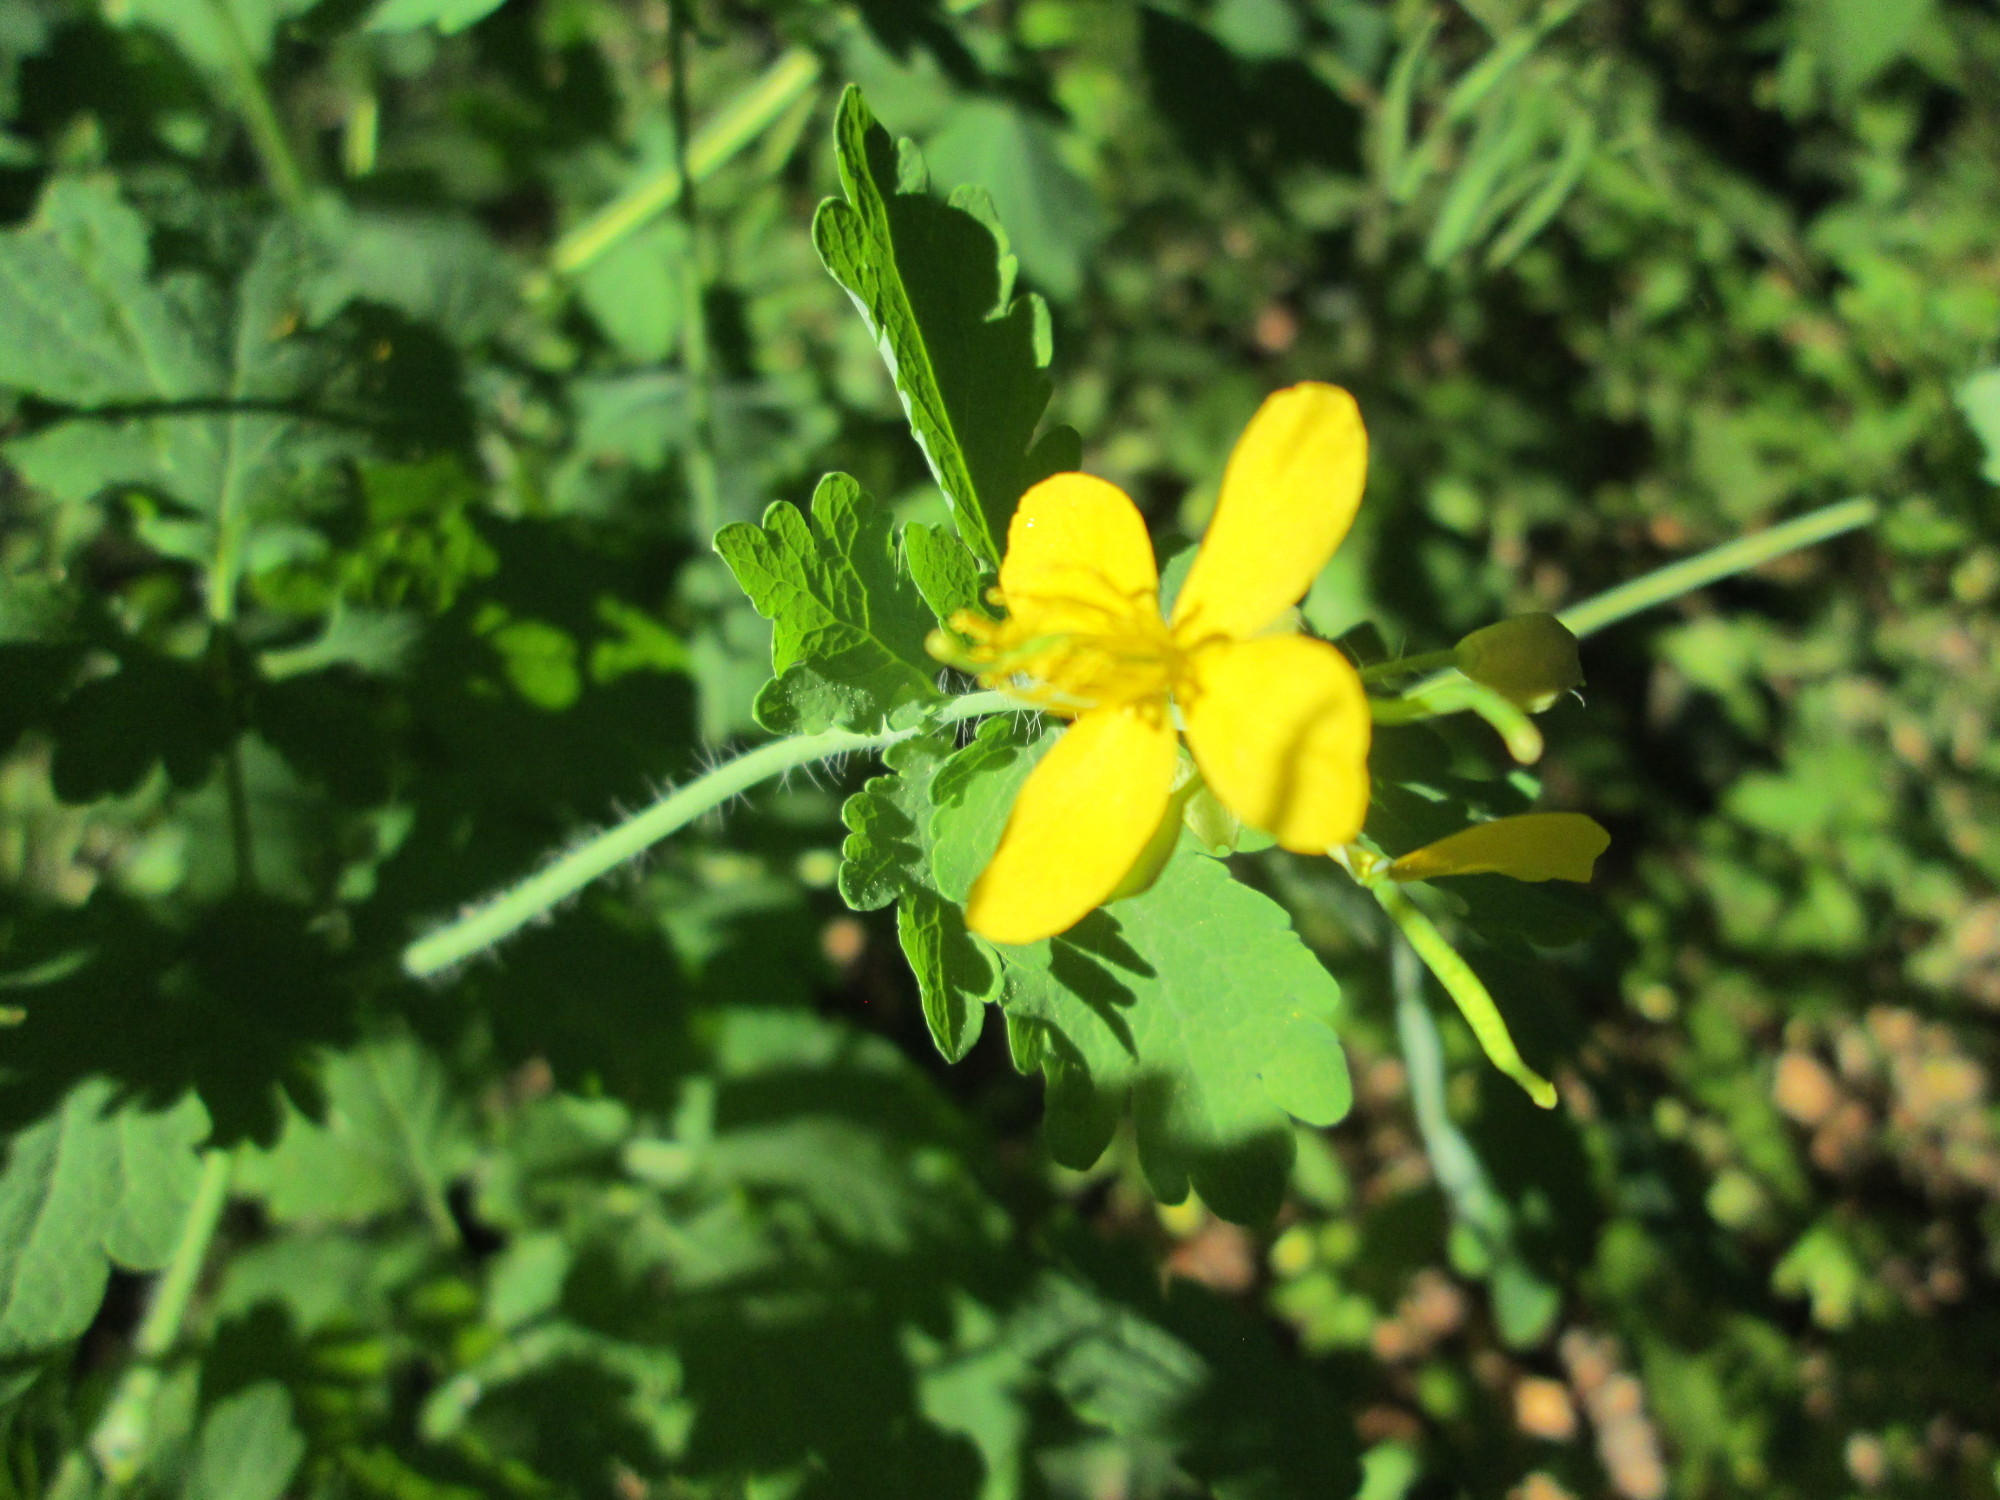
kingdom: Plantae
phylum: Tracheophyta
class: Magnoliopsida
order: Ranunculales
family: Papaveraceae
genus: Chelidonium
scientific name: Chelidonium majus
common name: Greater celandine
